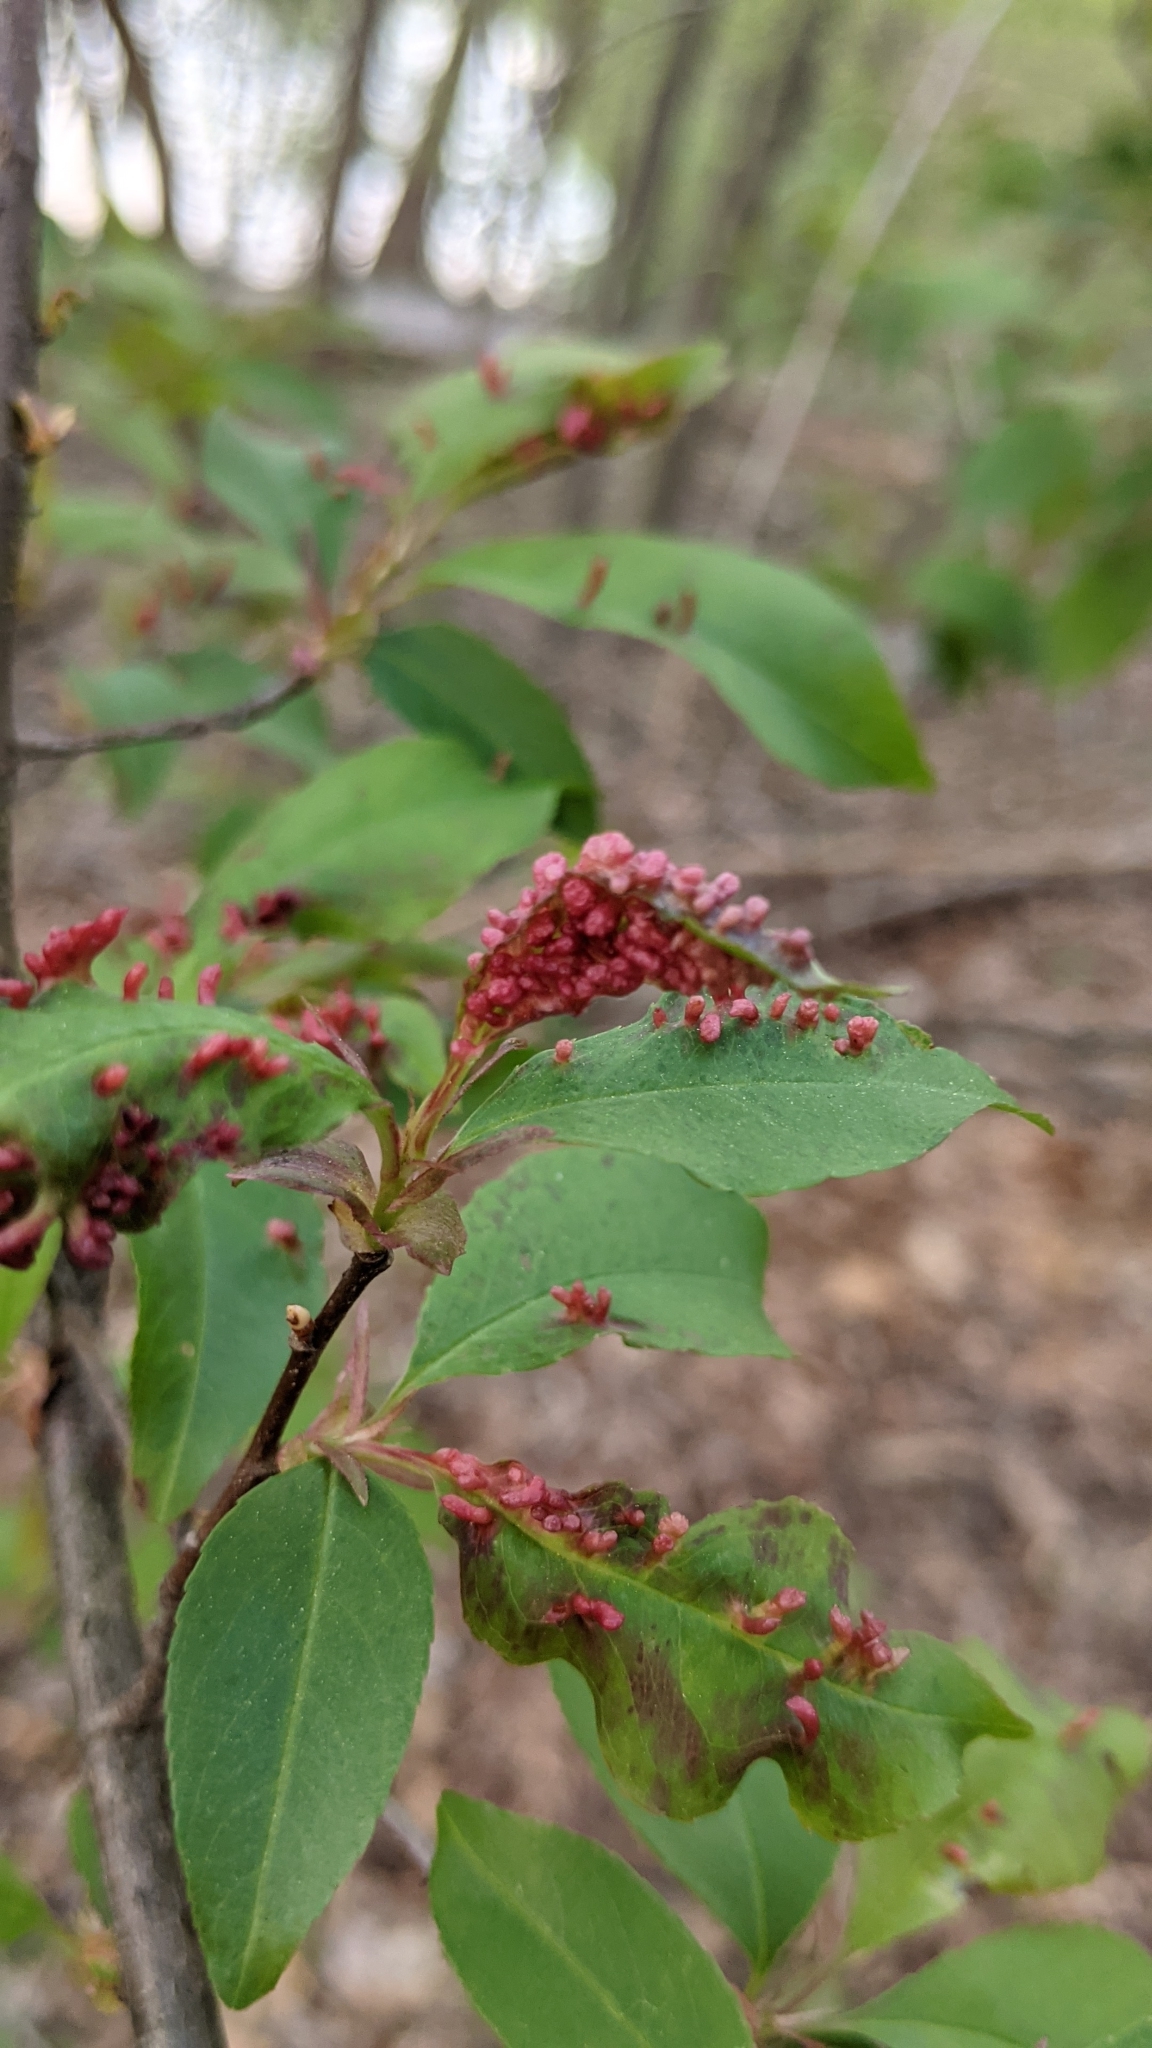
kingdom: Animalia
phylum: Arthropoda
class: Arachnida
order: Trombidiformes
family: Eriophyidae
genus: Eriophyes
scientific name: Eriophyes
